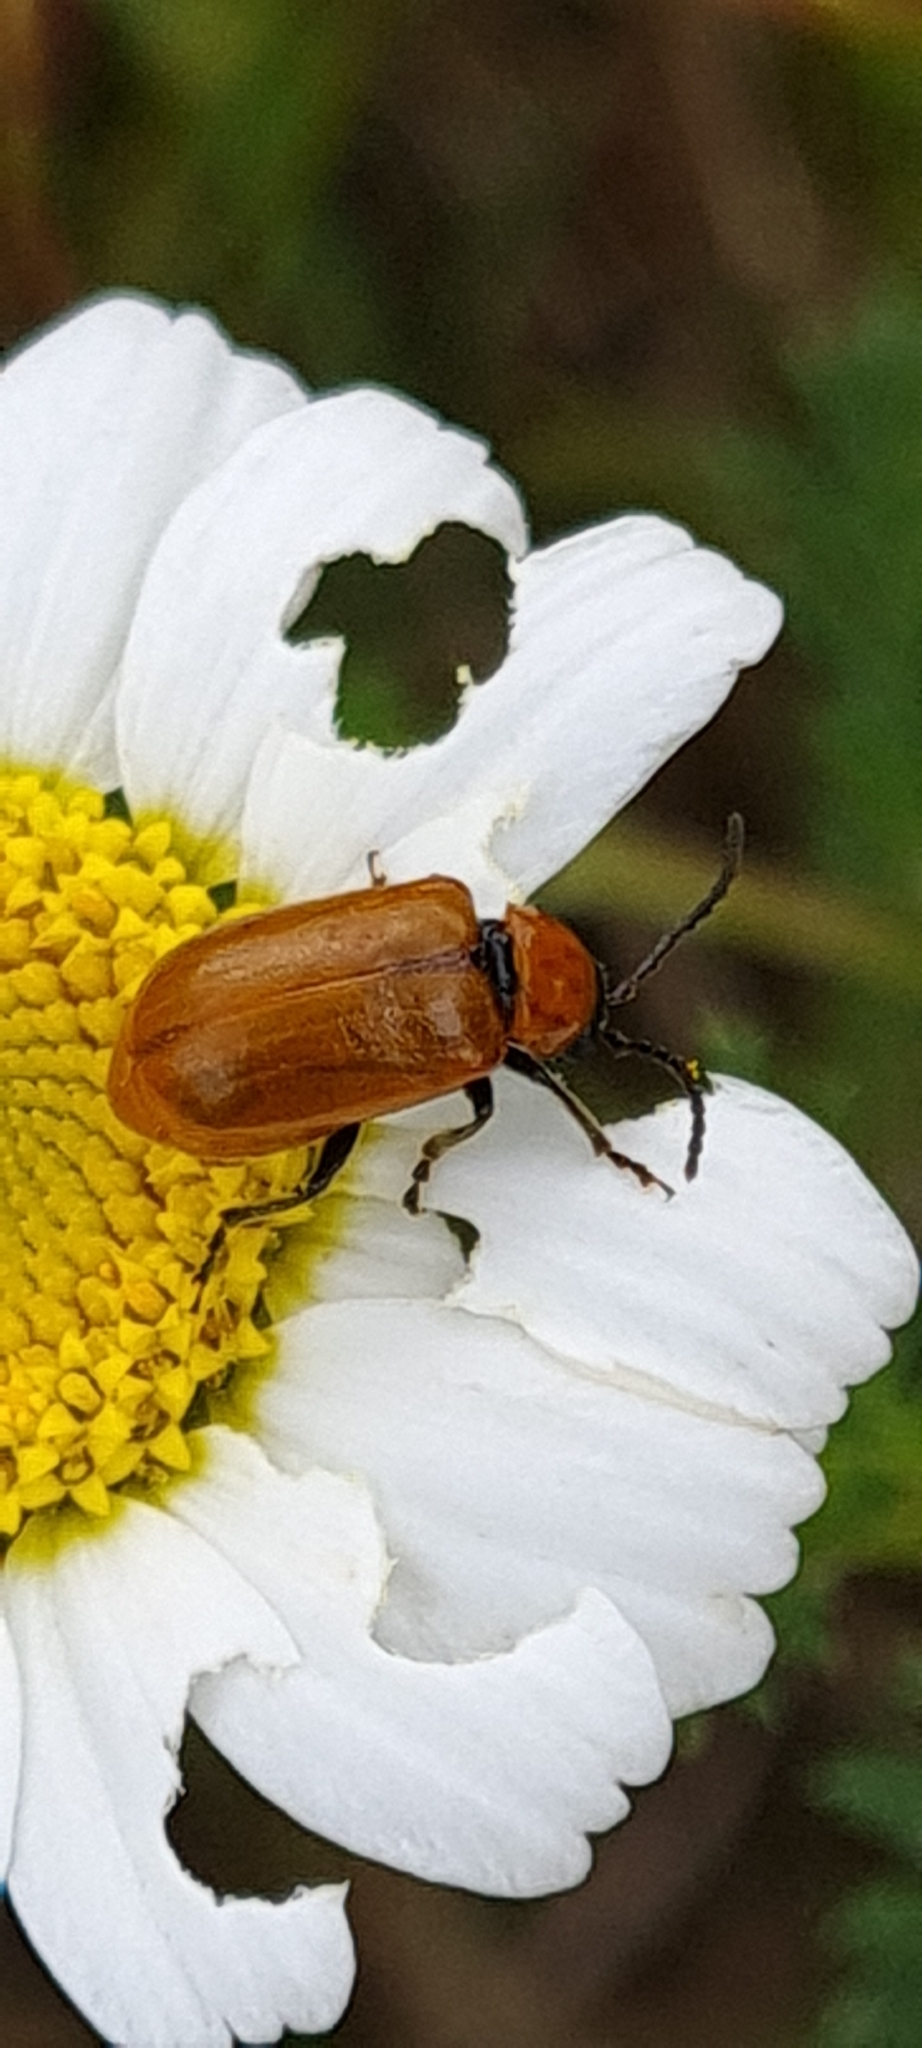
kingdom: Animalia
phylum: Arthropoda
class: Insecta
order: Coleoptera
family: Chrysomelidae
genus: Exosoma
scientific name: Exosoma lusitanicum
